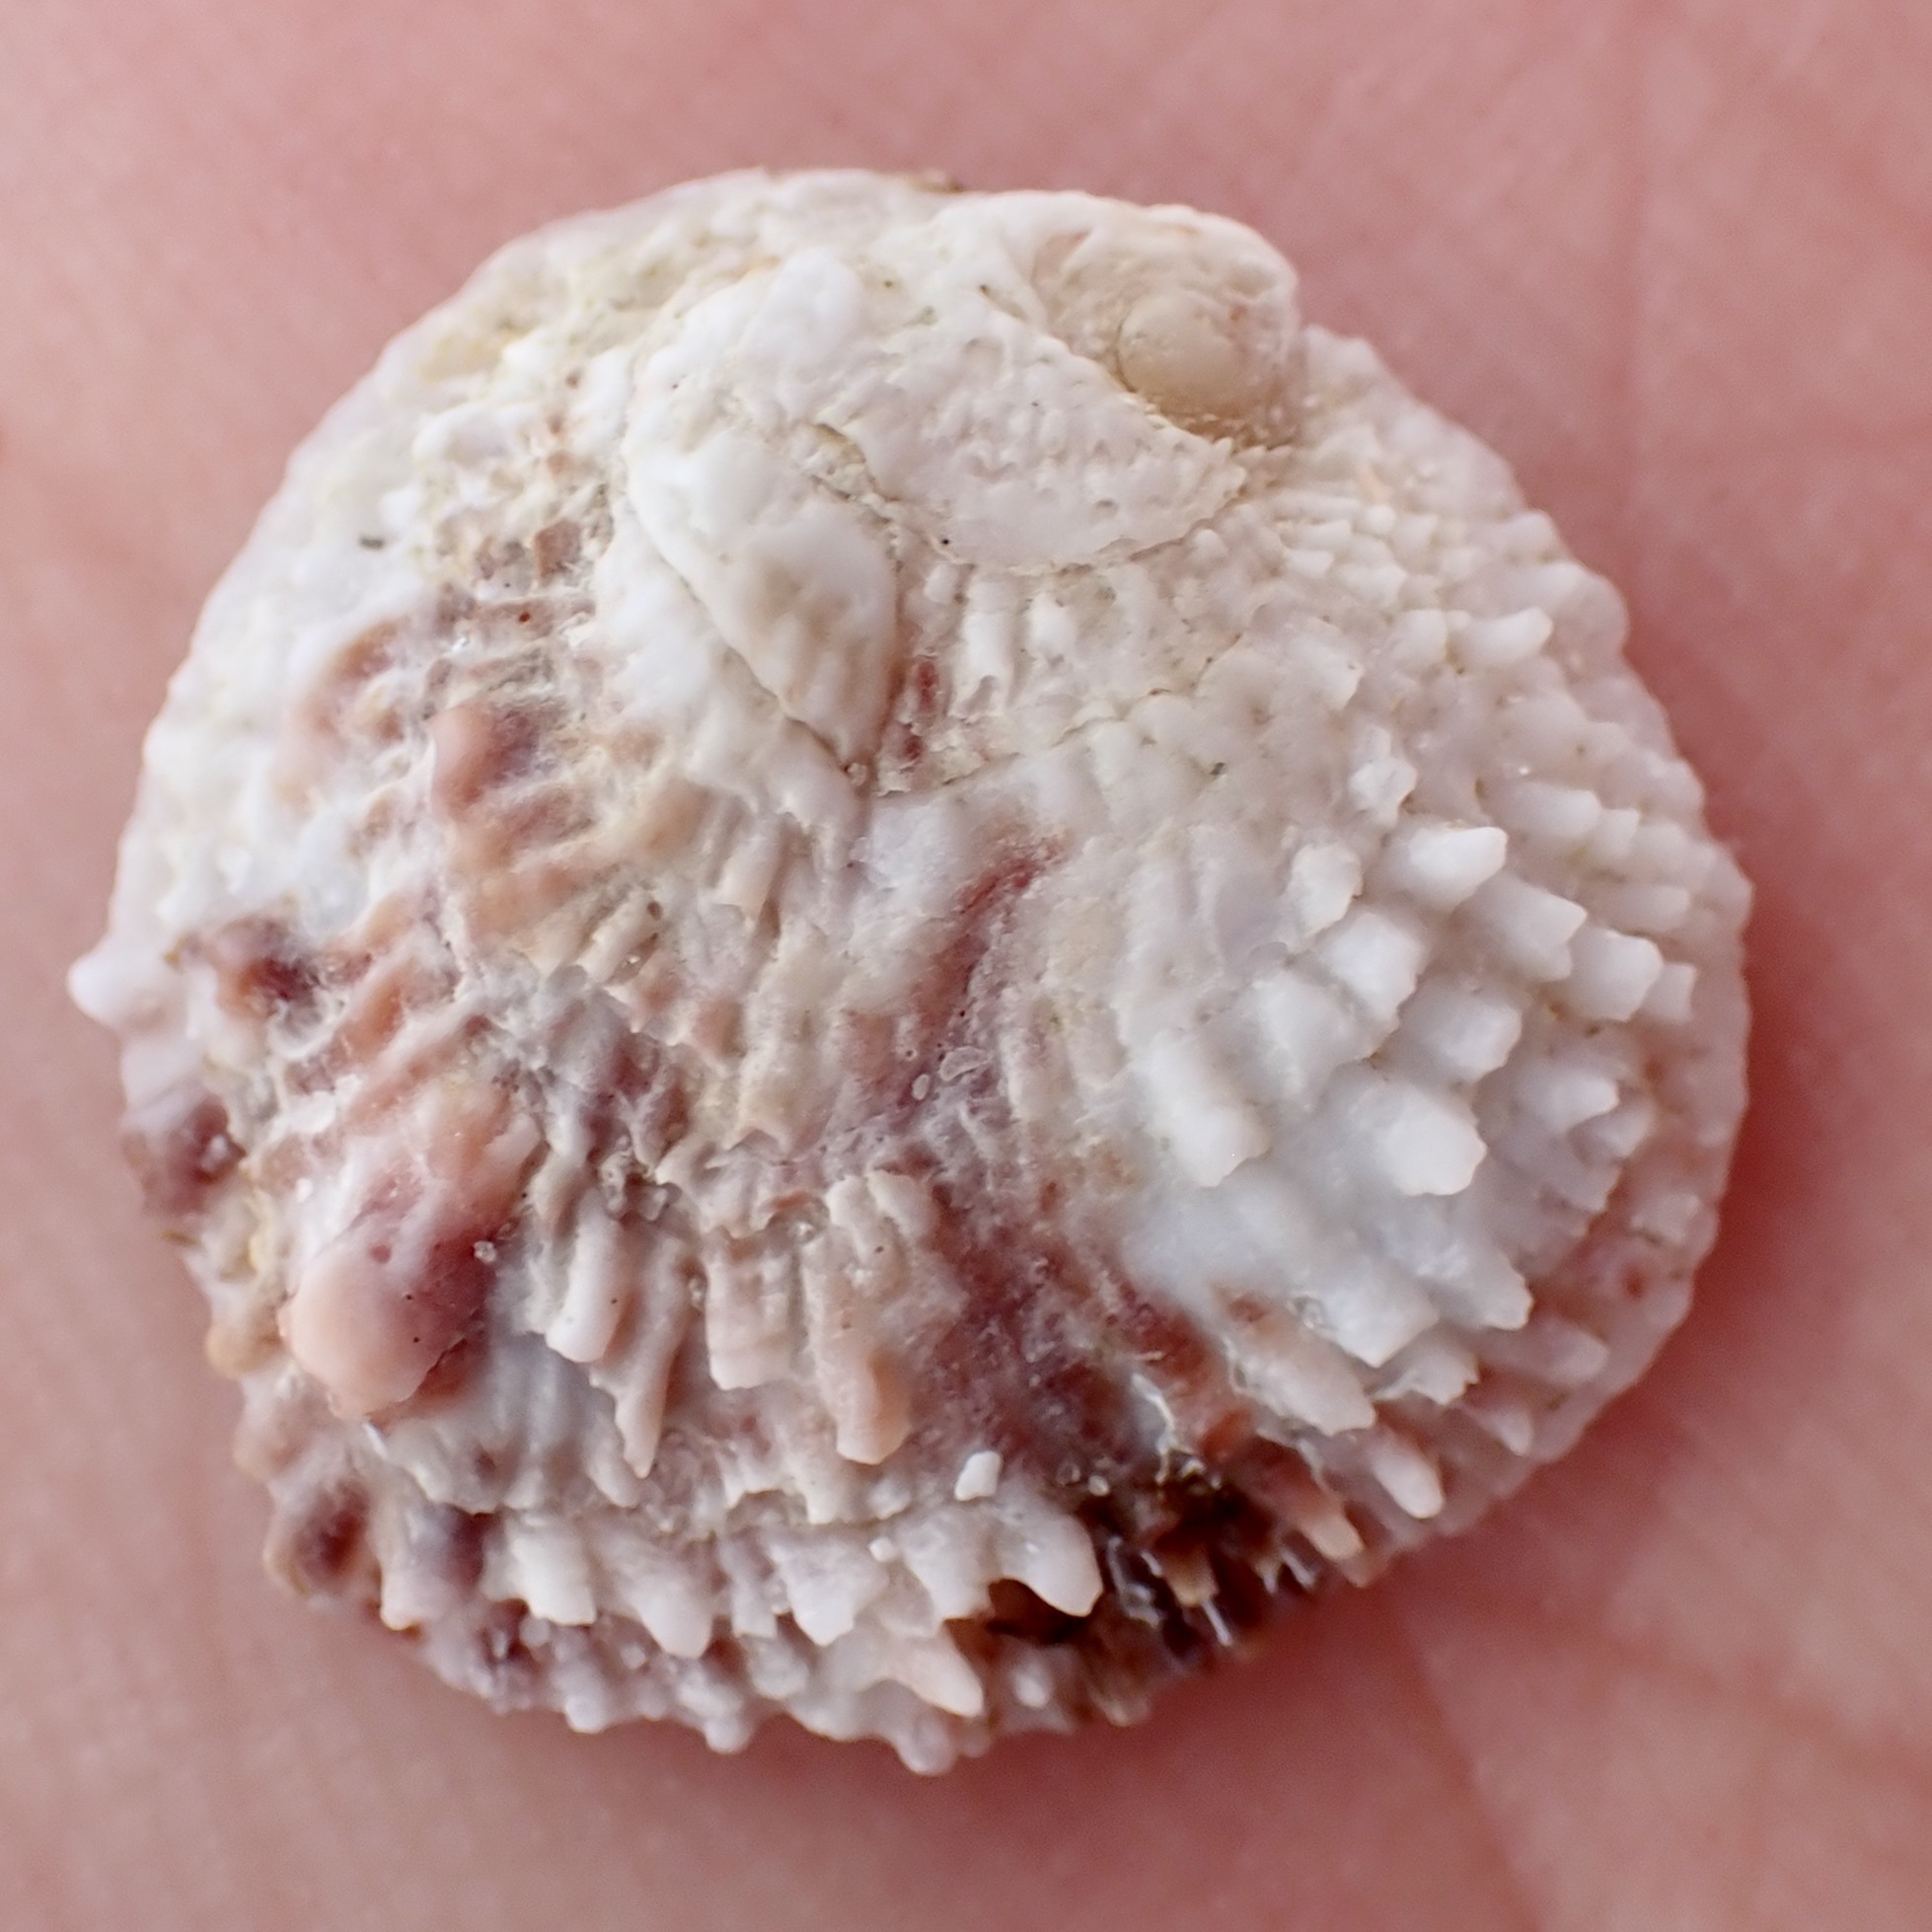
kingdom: Animalia
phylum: Mollusca
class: Bivalvia
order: Venerida
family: Chamidae
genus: Chama
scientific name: Chama congregata
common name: Corrugate jewelbox
